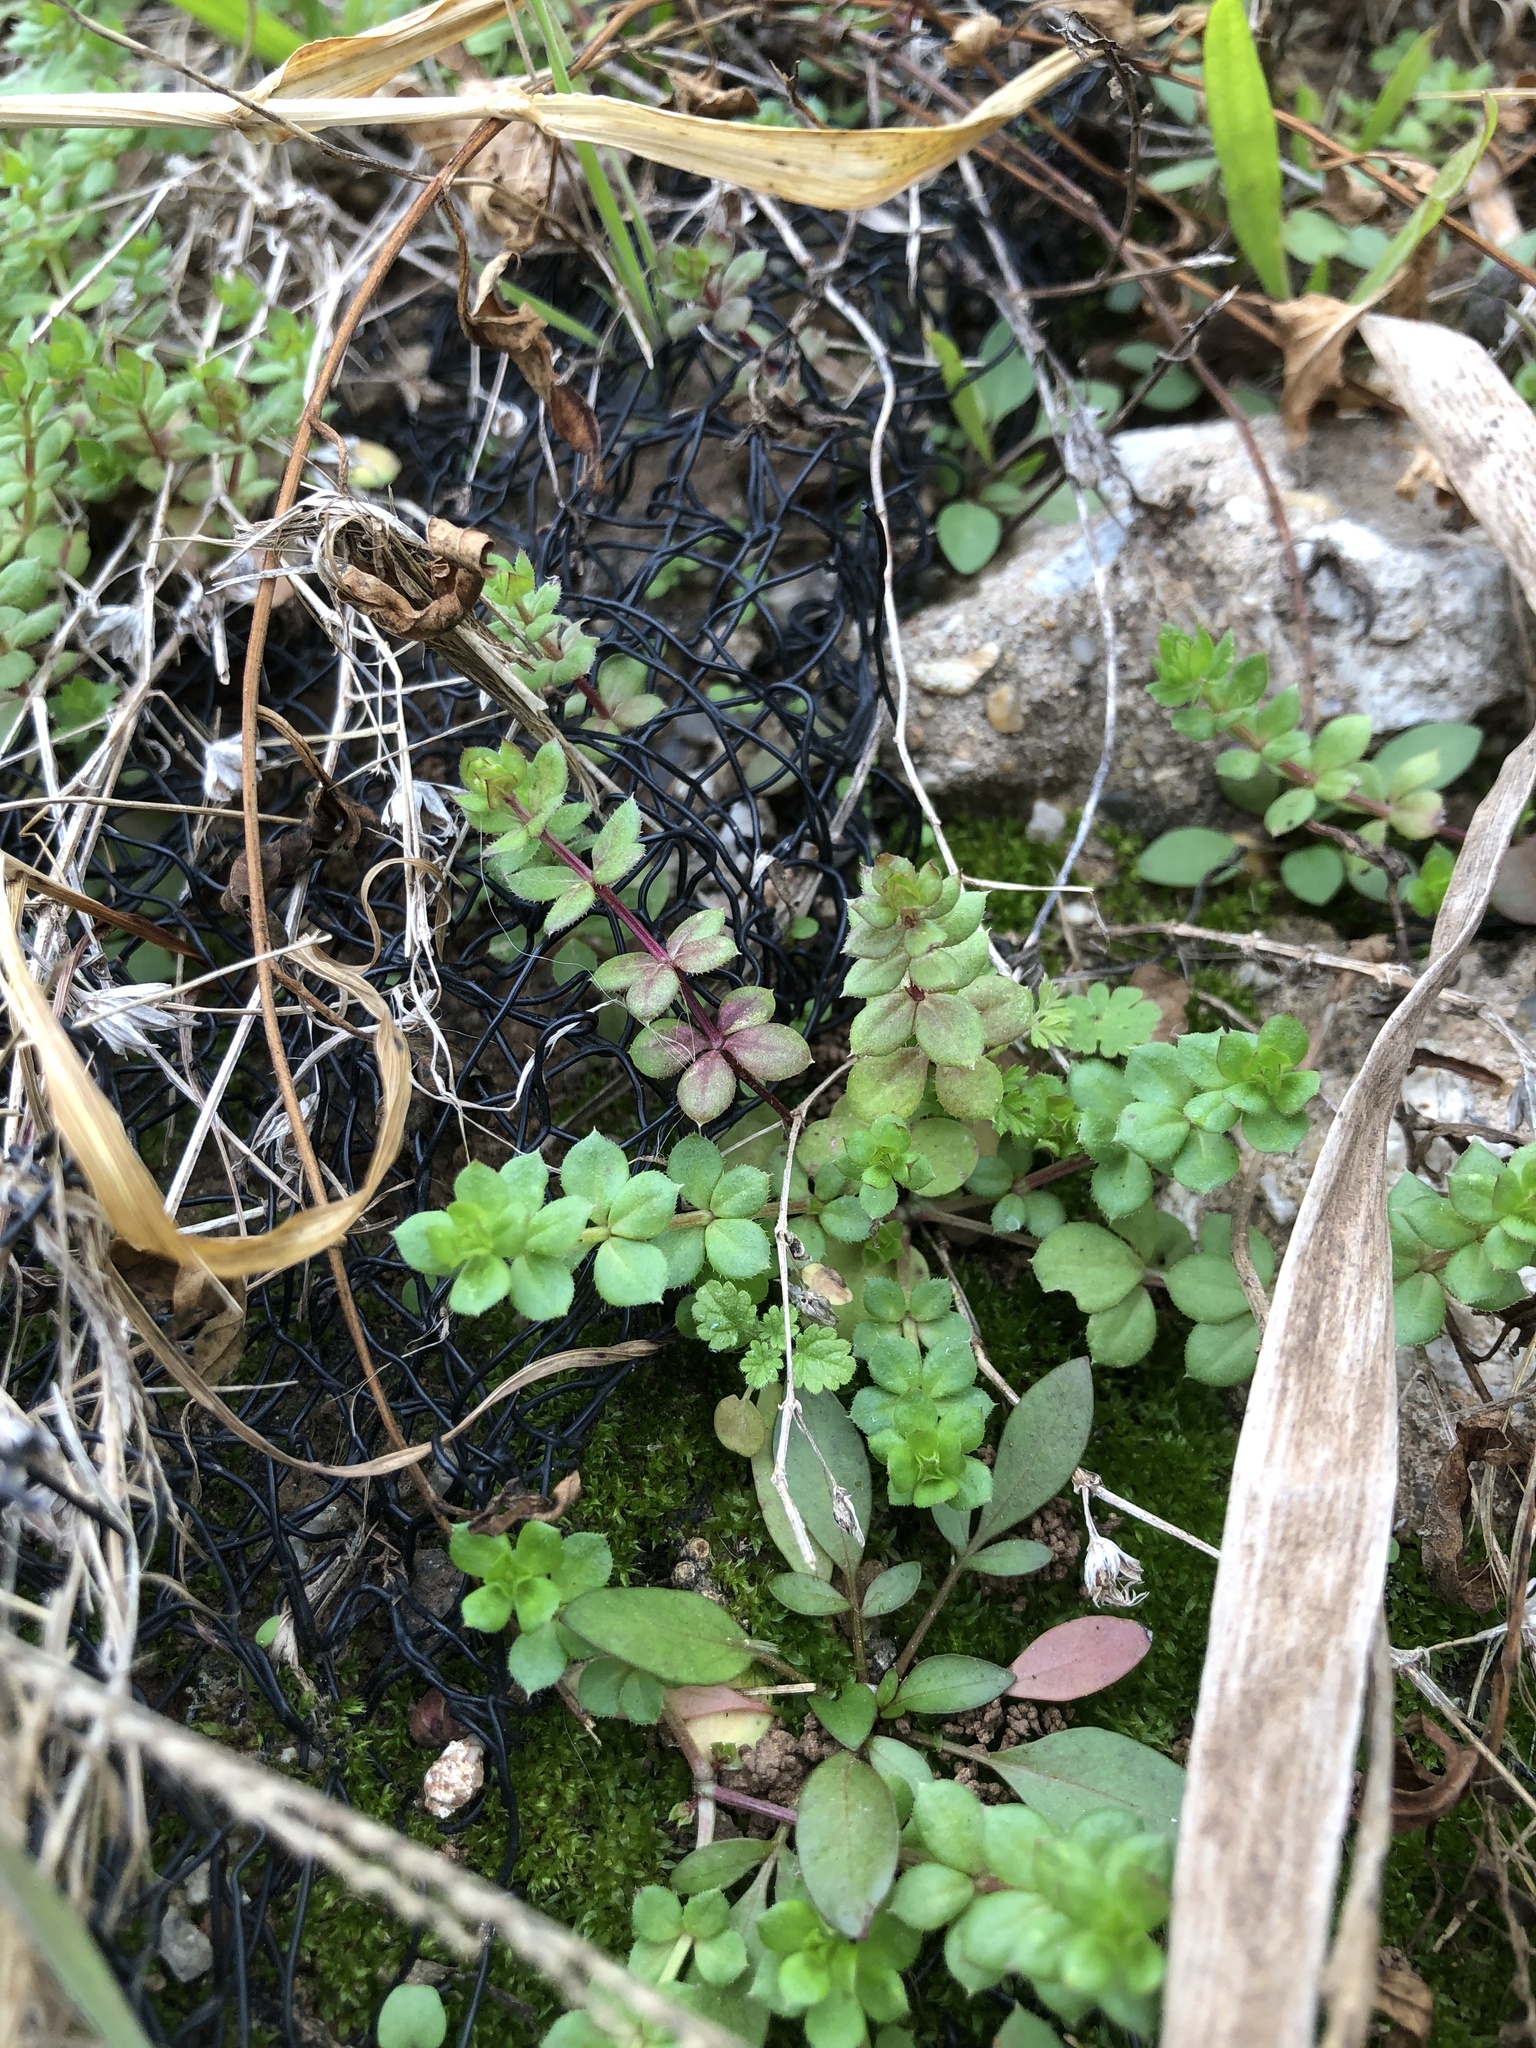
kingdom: Plantae
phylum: Tracheophyta
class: Magnoliopsida
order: Gentianales
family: Rubiaceae
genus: Sherardia
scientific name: Sherardia arvensis
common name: Field madder
